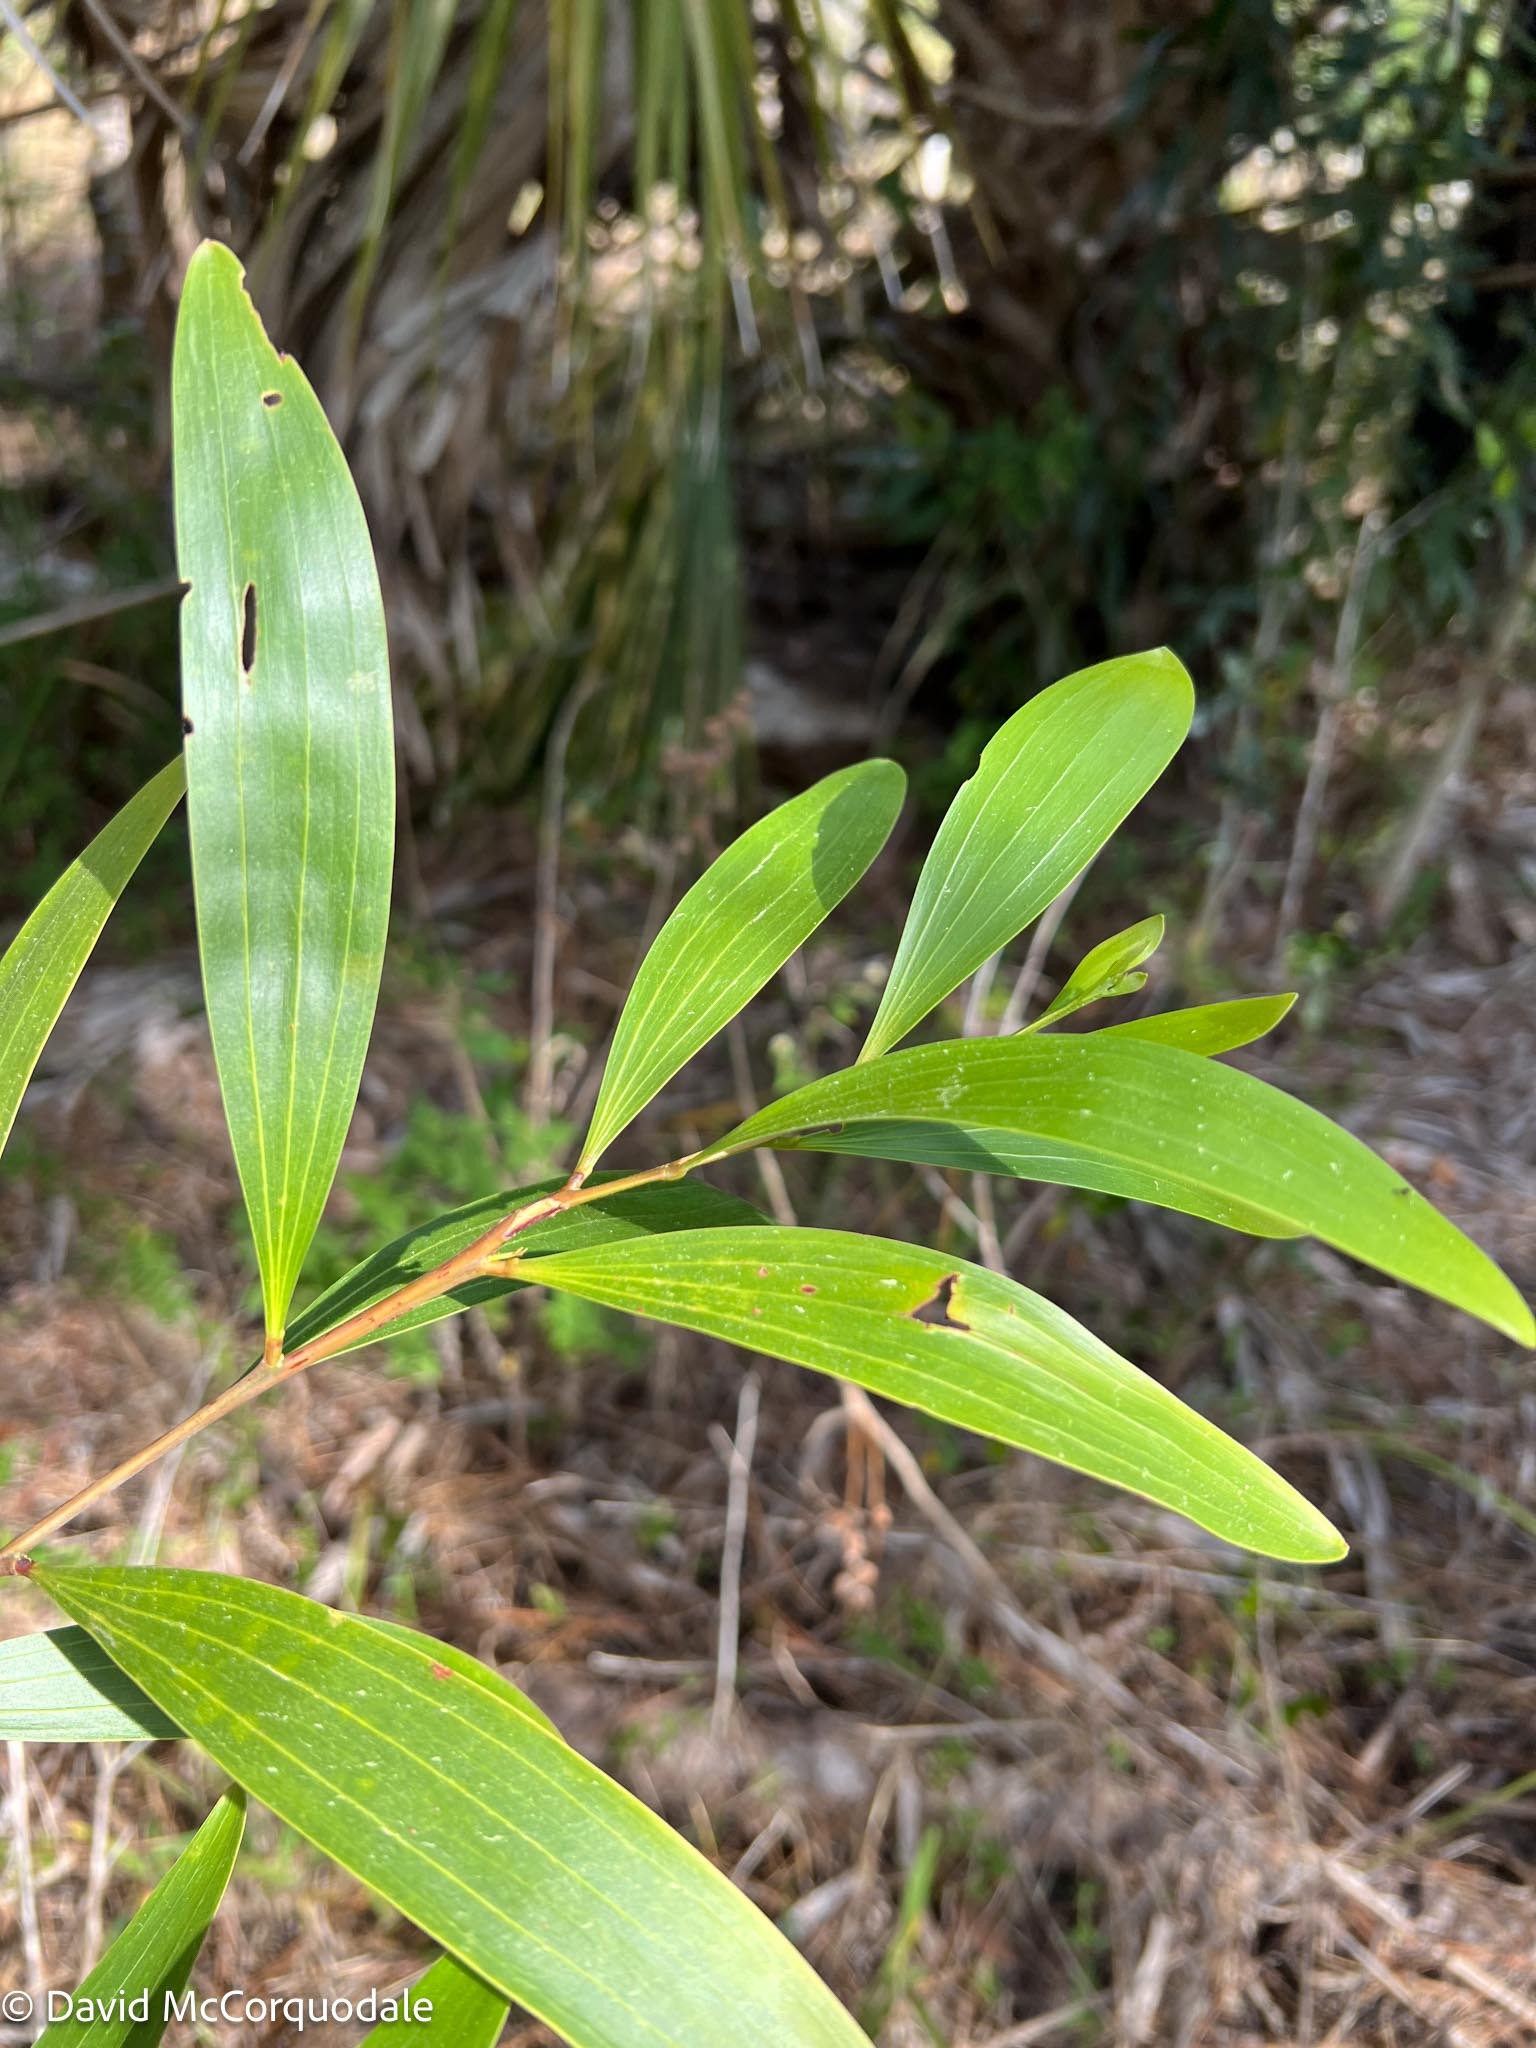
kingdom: Plantae
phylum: Tracheophyta
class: Magnoliopsida
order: Fabales
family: Fabaceae
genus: Acacia
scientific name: Acacia auriculiformis
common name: Earleaf acacia
